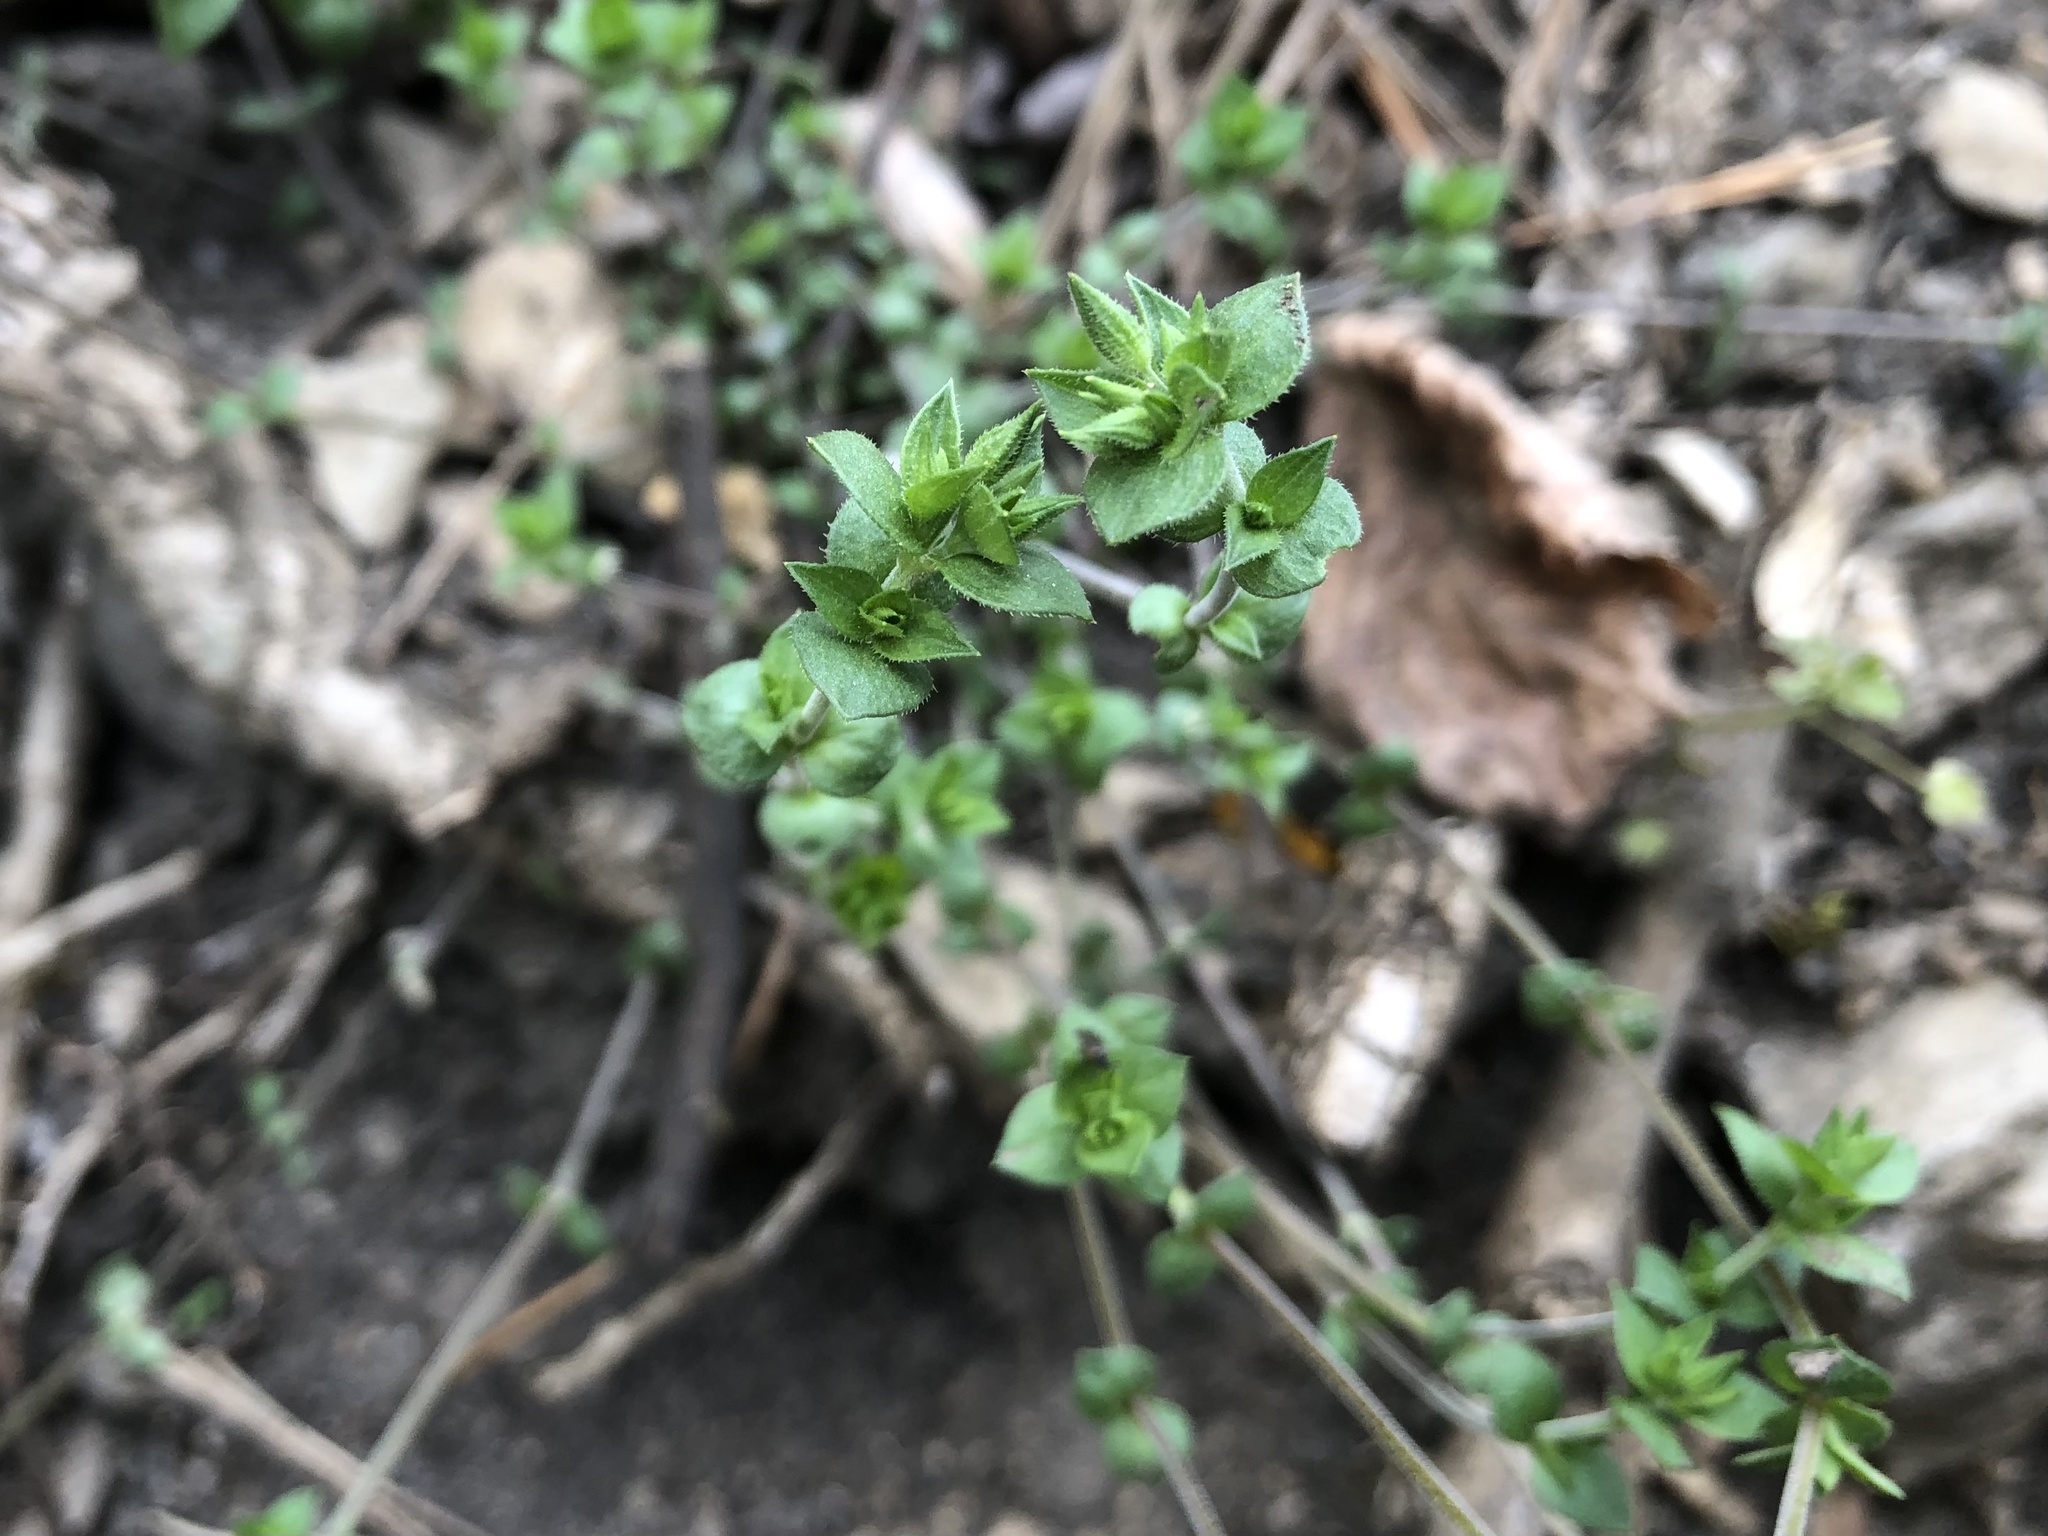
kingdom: Plantae
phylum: Tracheophyta
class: Magnoliopsida
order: Caryophyllales
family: Caryophyllaceae
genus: Arenaria
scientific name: Arenaria serpyllifolia
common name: Thyme-leaved sandwort
